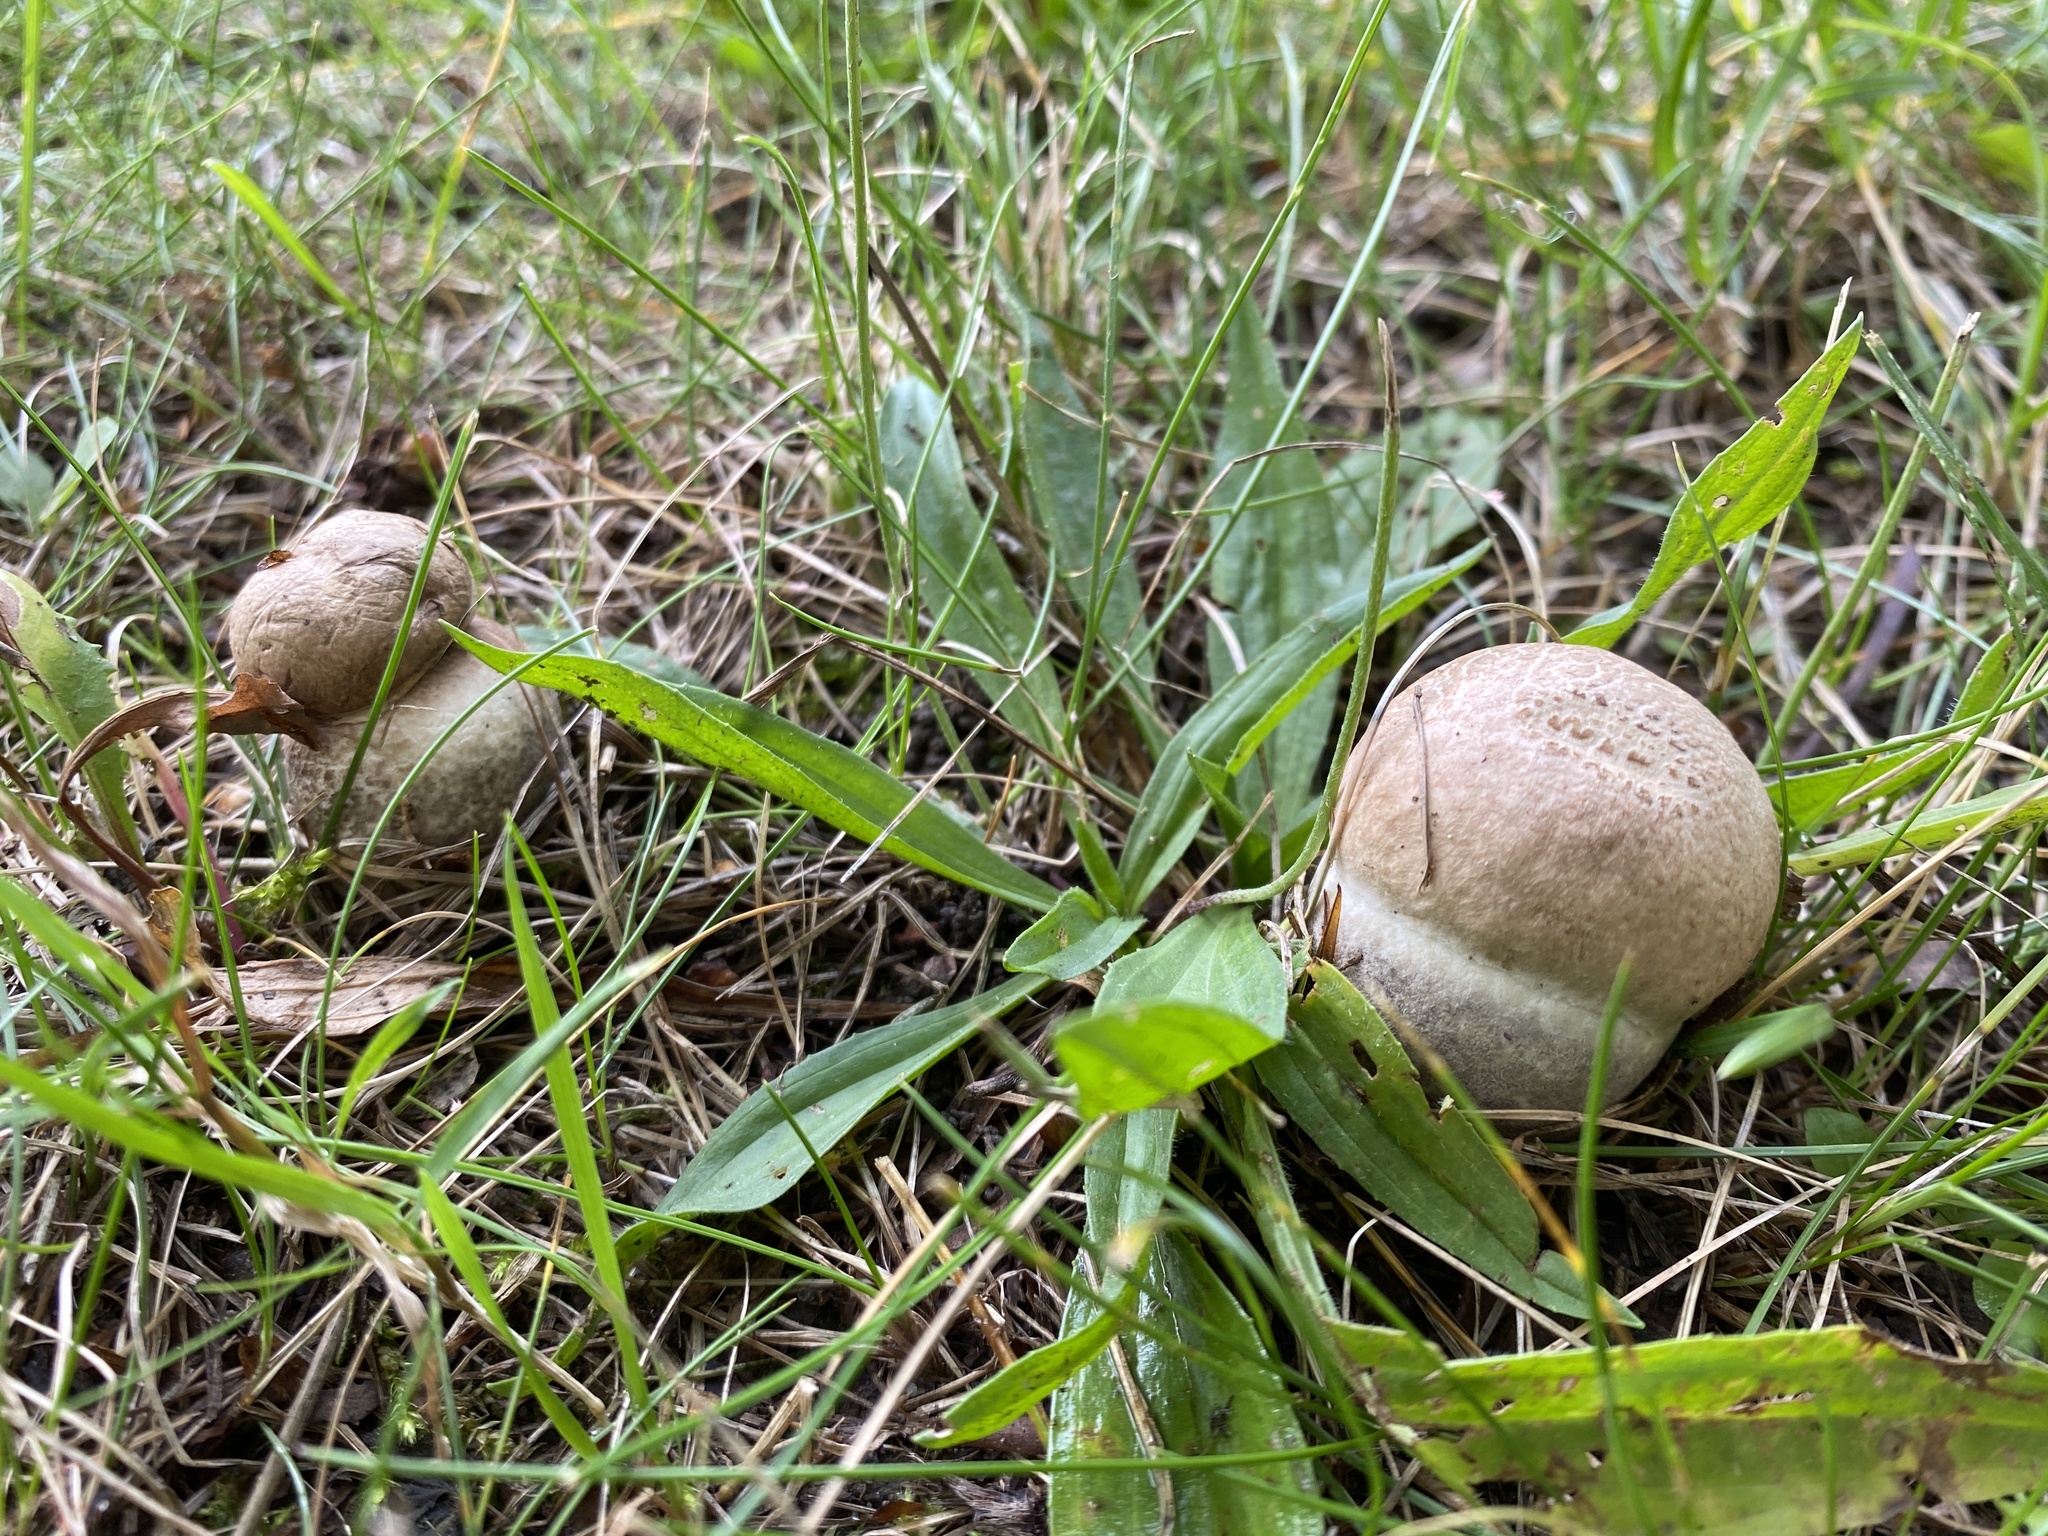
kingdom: Fungi
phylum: Basidiomycota
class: Agaricomycetes
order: Boletales
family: Boletaceae
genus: Leccinum
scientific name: Leccinum duriusculum
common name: Slate bolete
